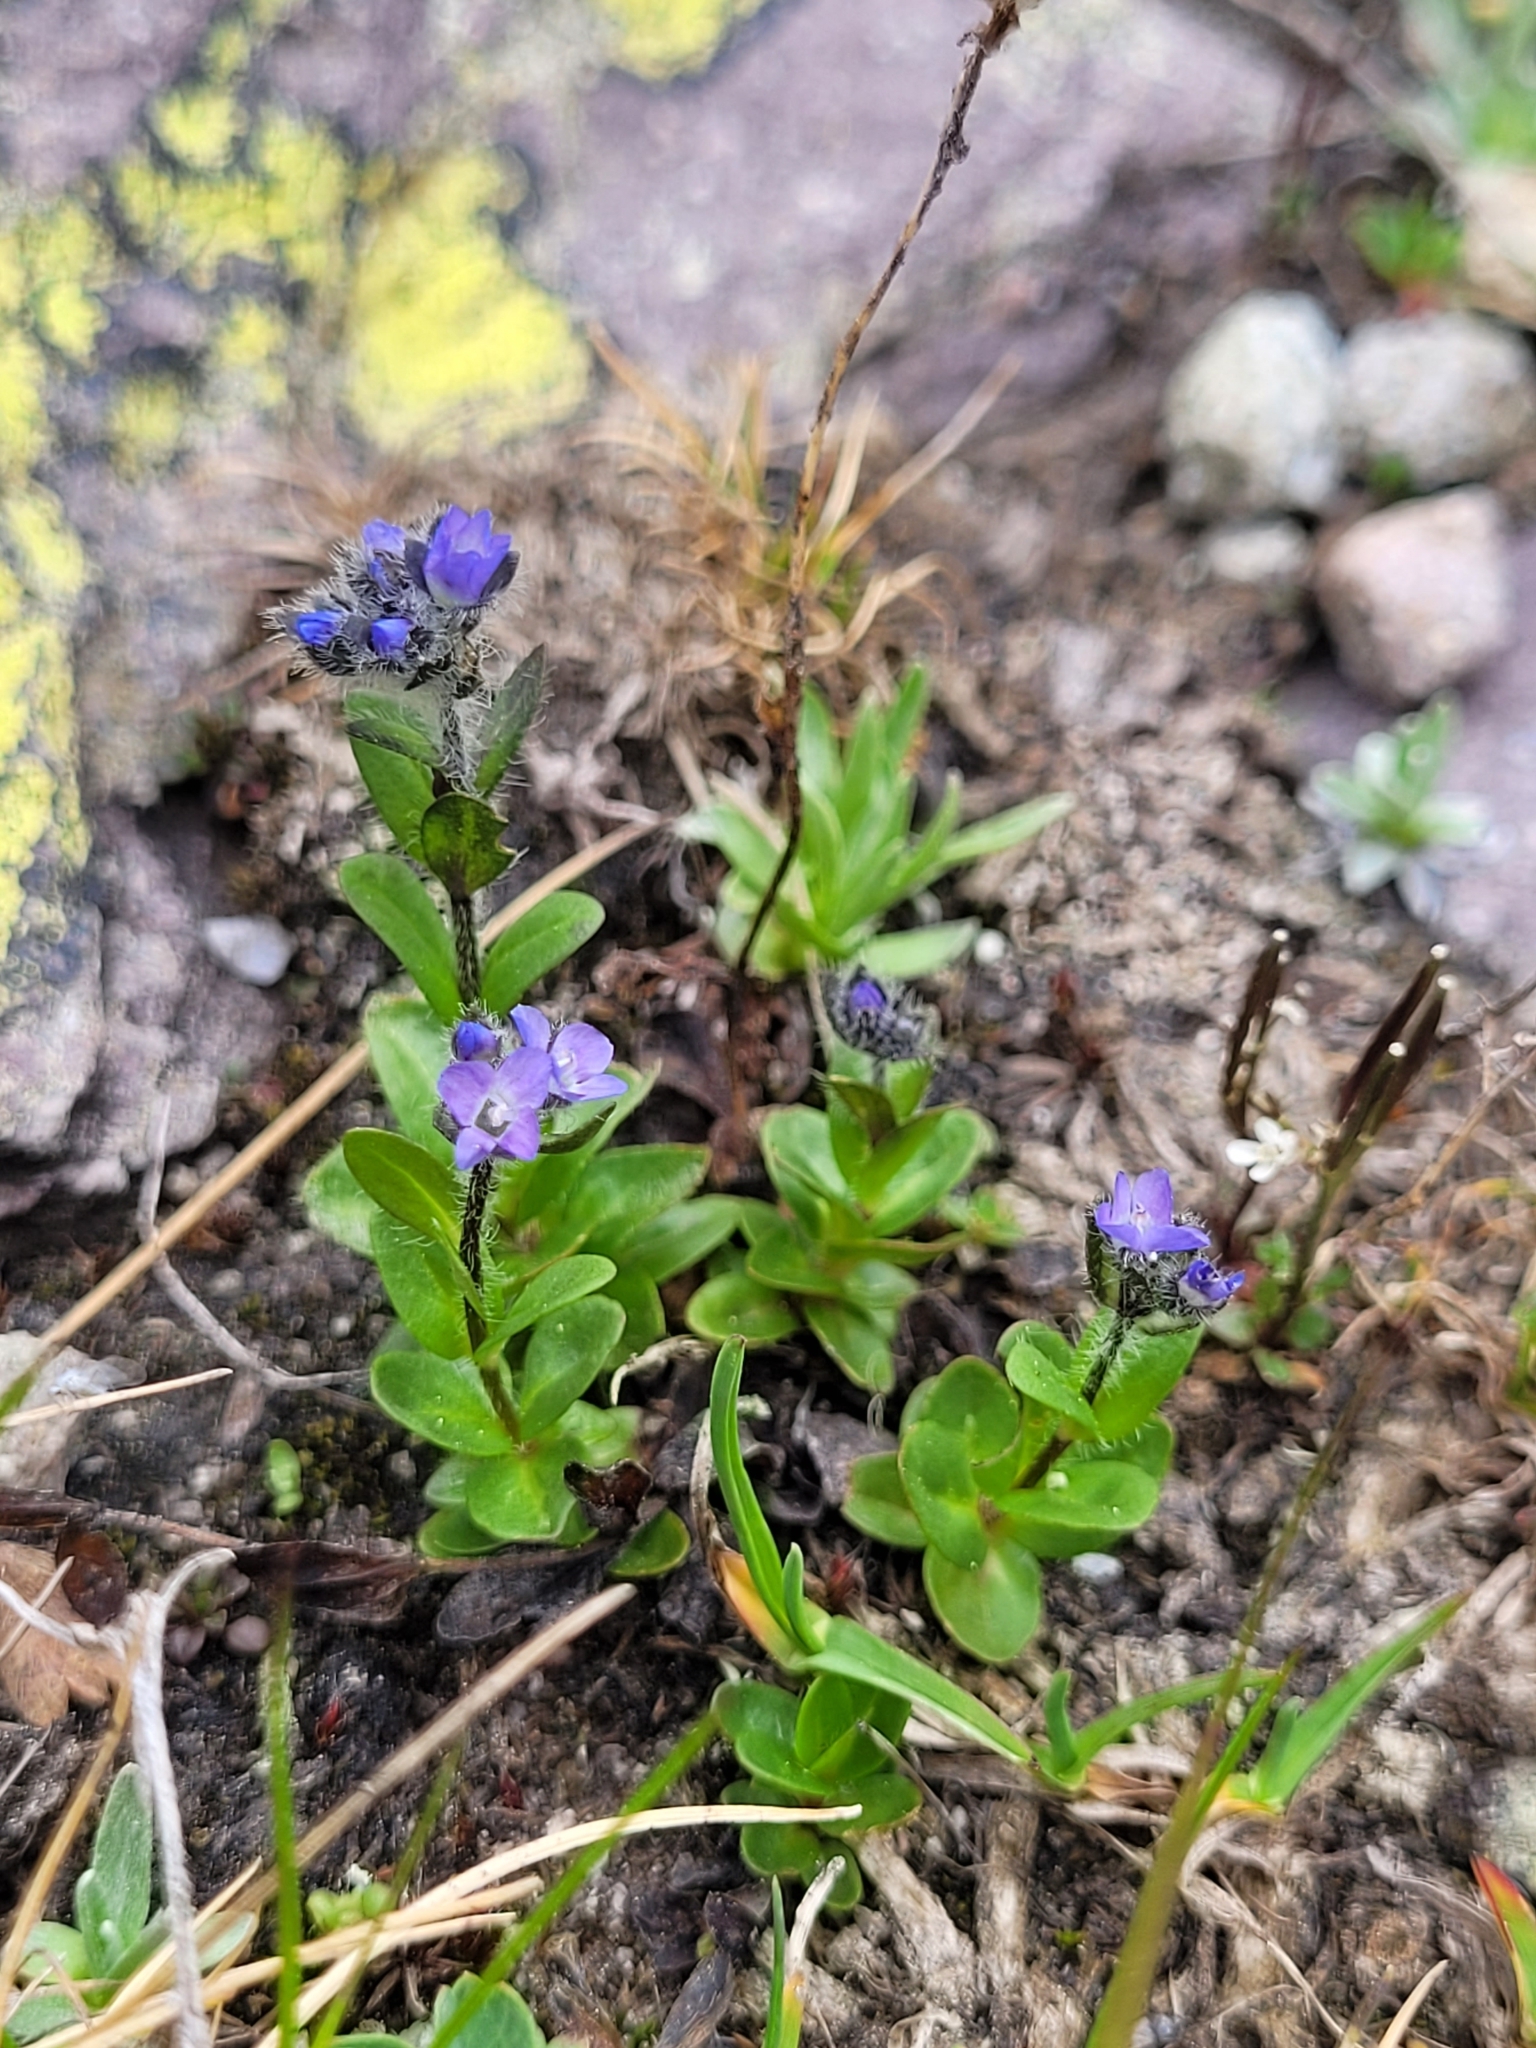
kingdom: Plantae
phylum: Tracheophyta
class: Magnoliopsida
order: Lamiales
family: Plantaginaceae
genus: Veronica
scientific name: Veronica alpina
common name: Alpine speedwell
